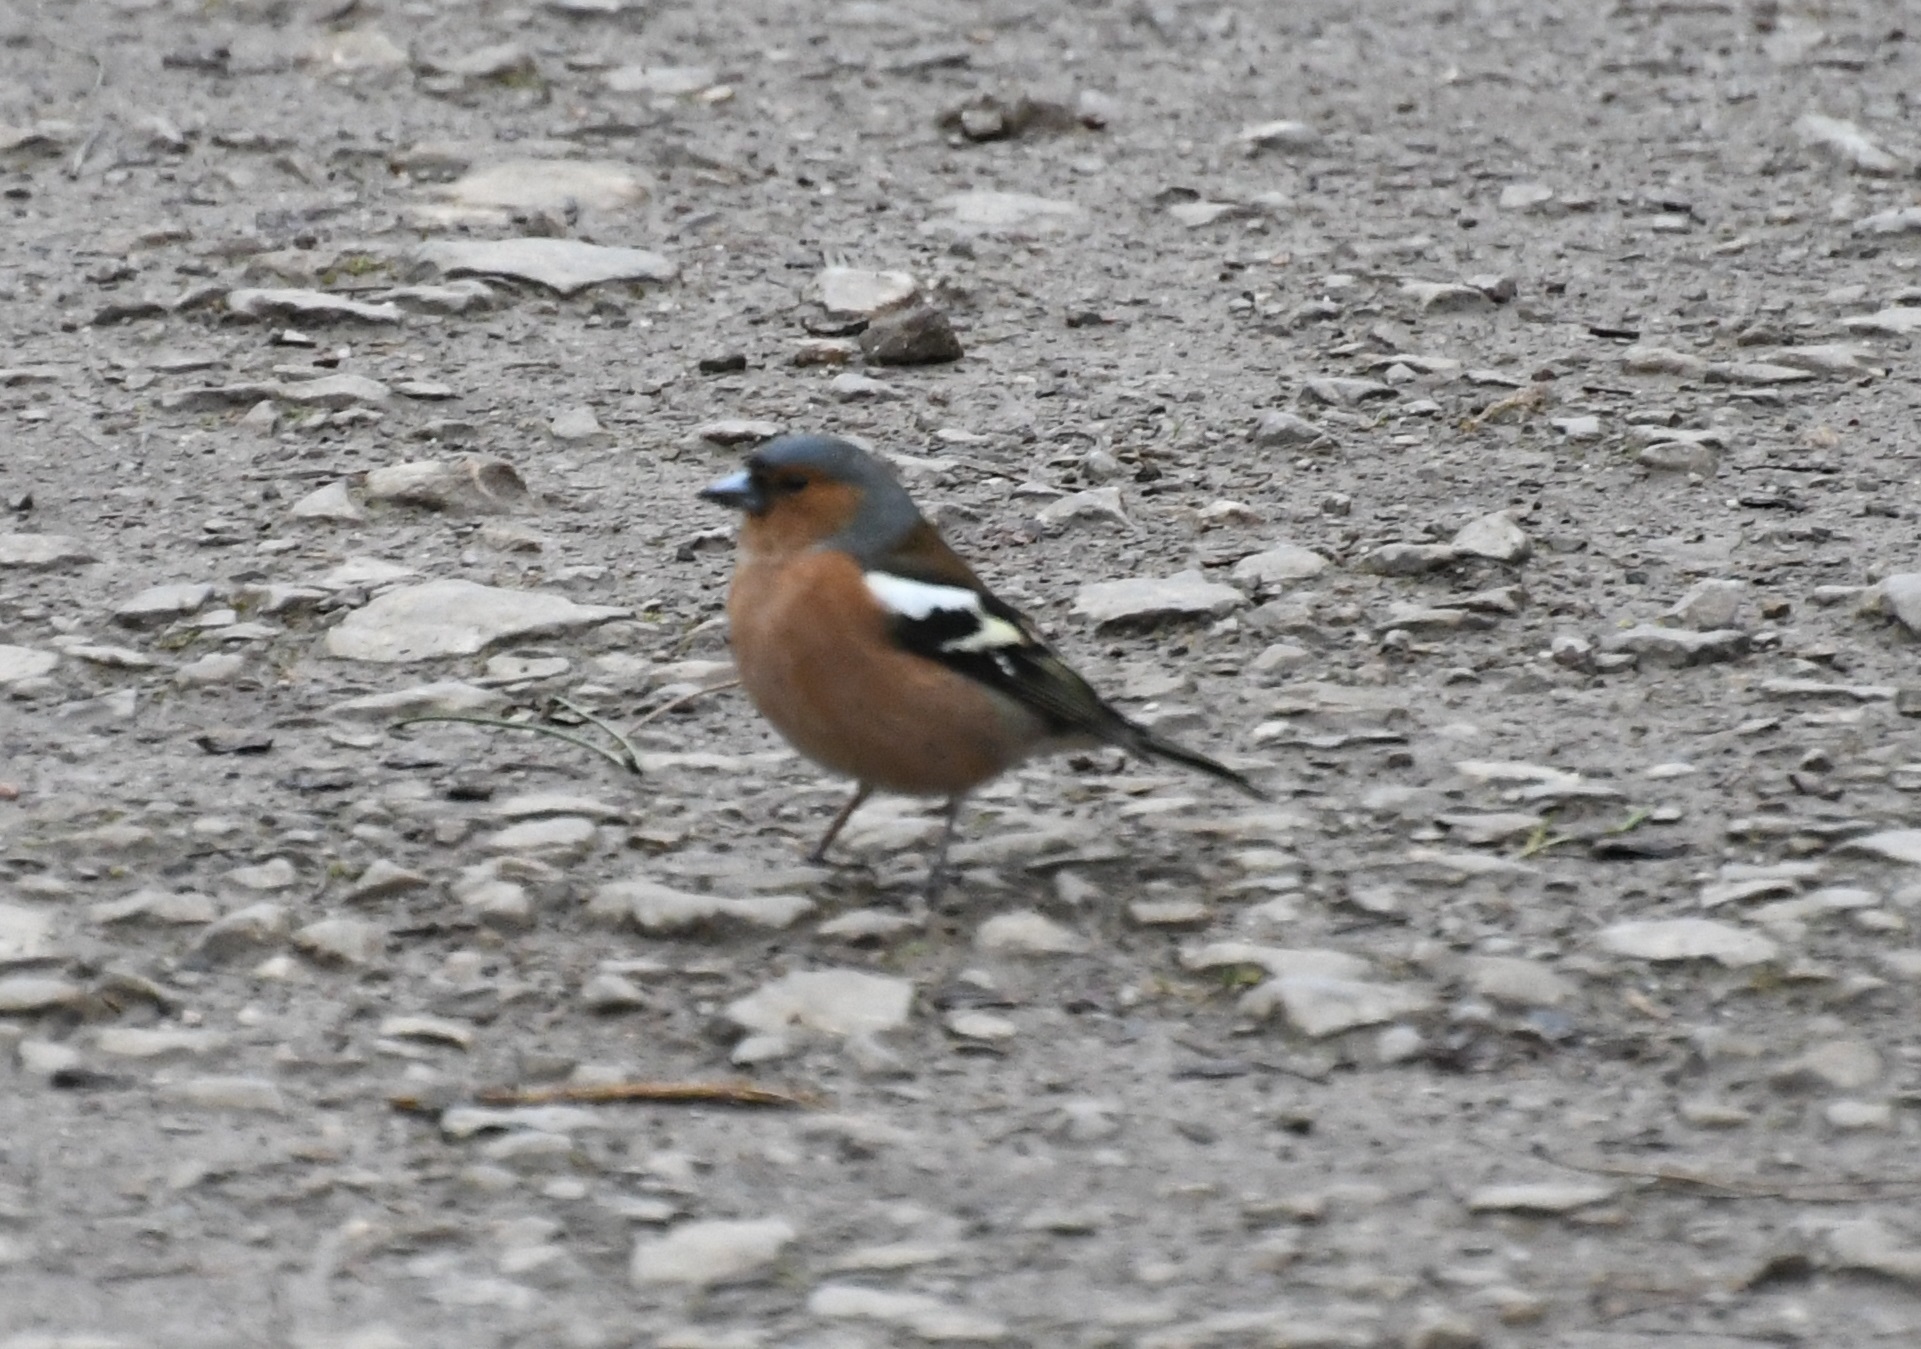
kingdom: Animalia
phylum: Chordata
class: Aves
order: Passeriformes
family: Fringillidae
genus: Fringilla
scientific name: Fringilla coelebs
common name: Common chaffinch
